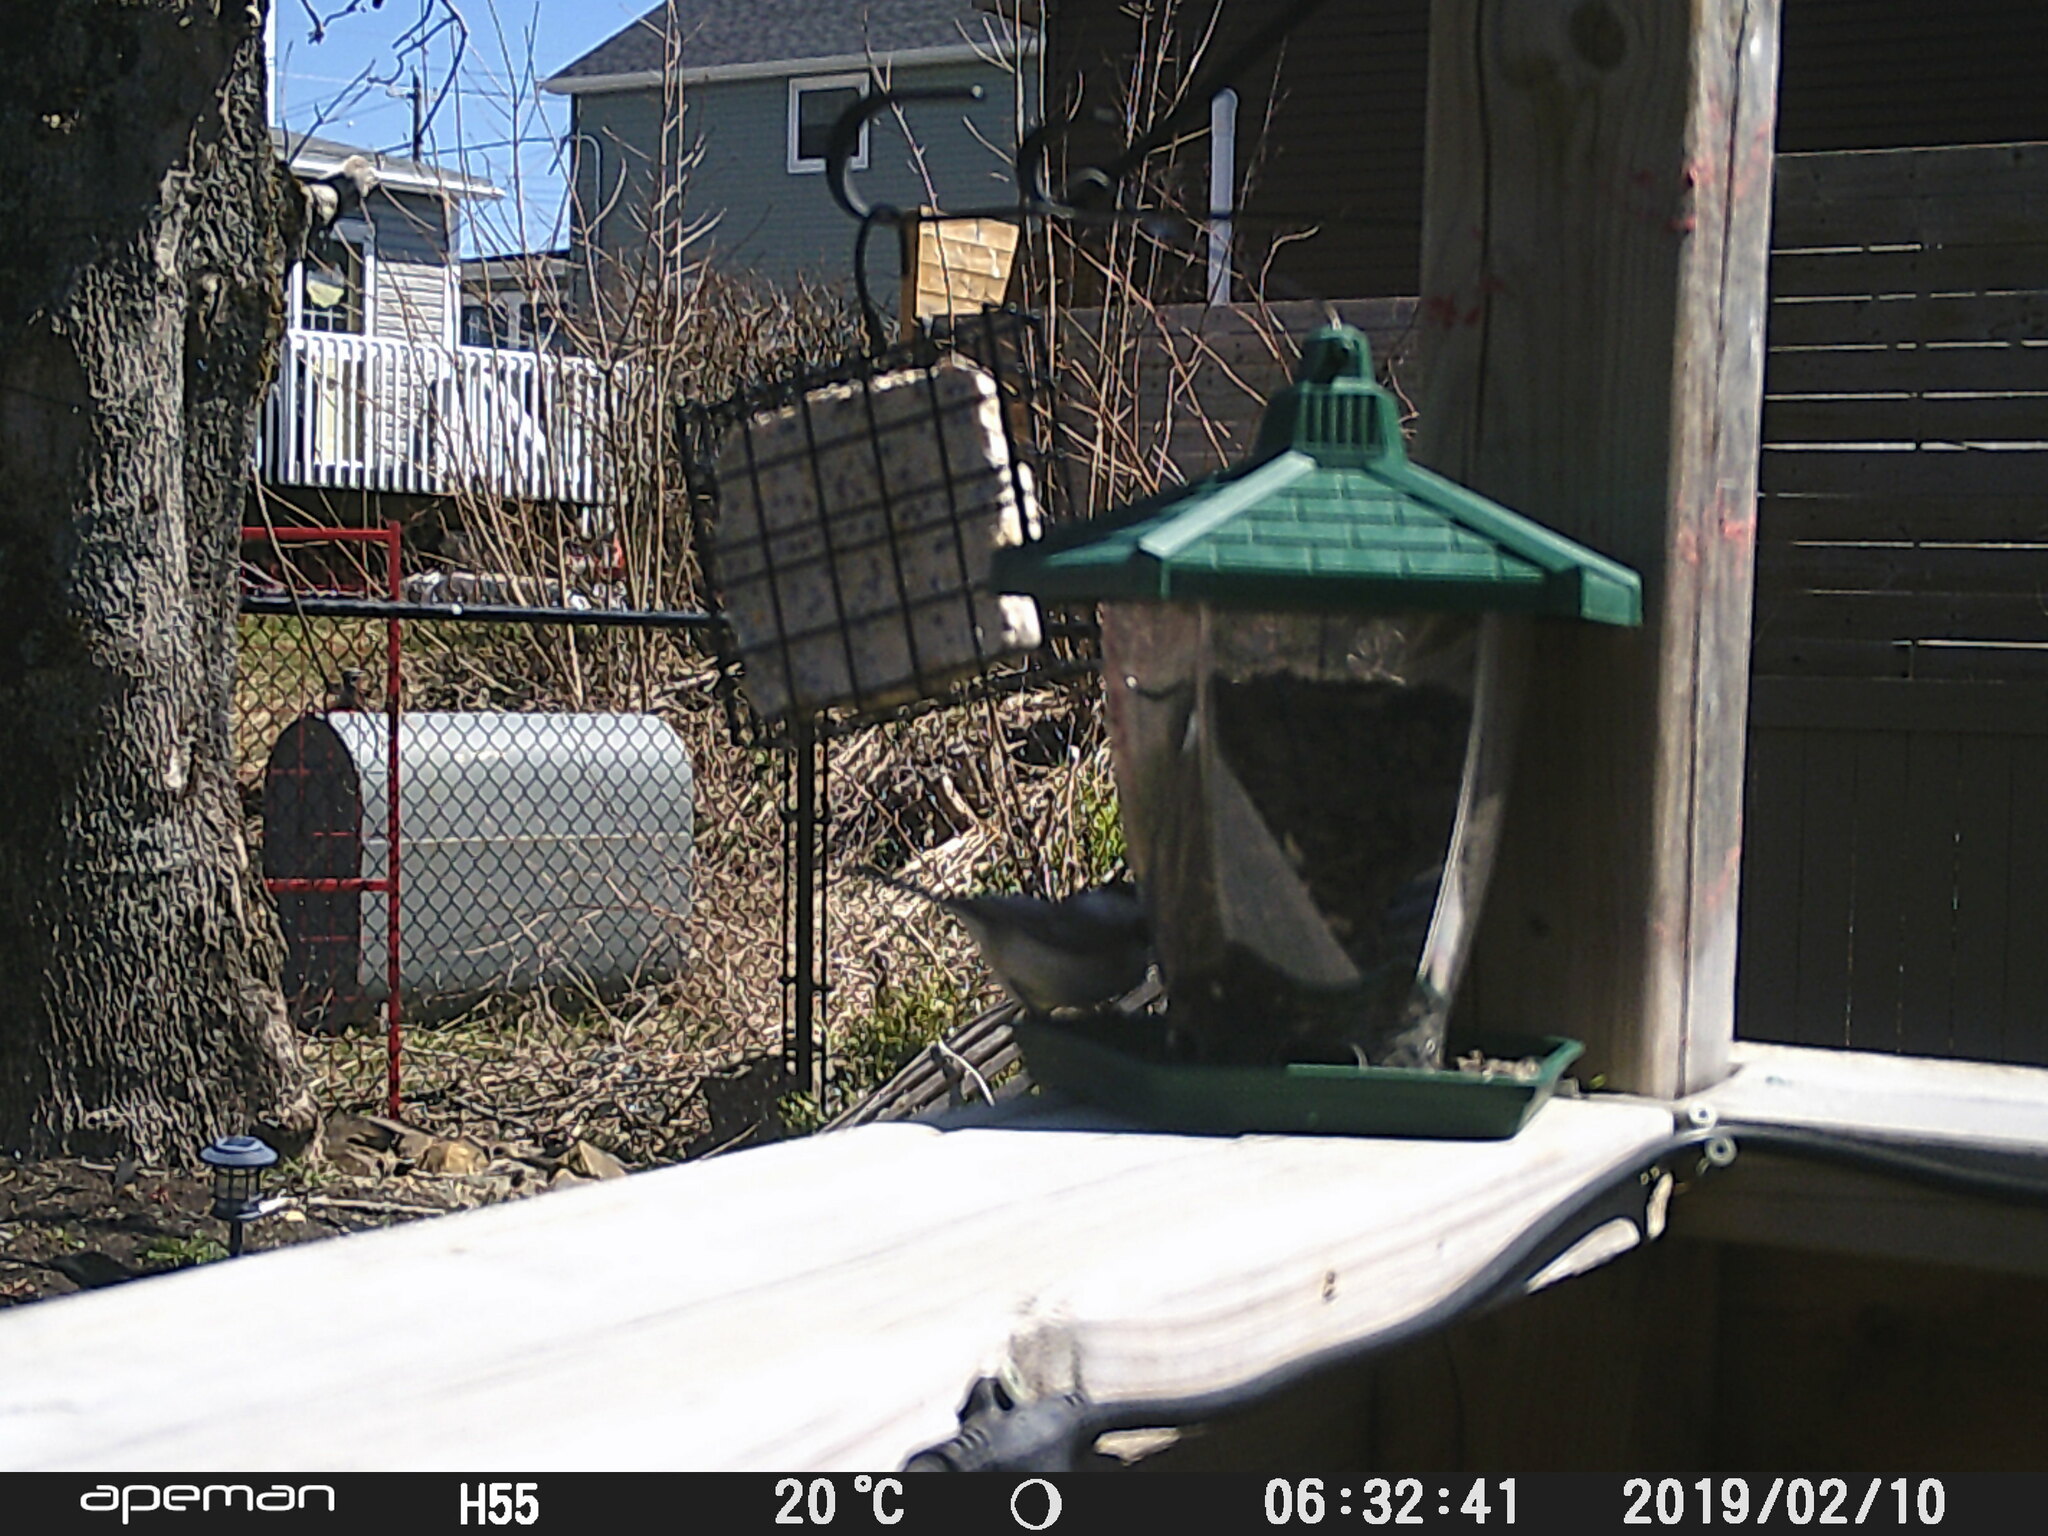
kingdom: Animalia
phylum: Chordata
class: Aves
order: Passeriformes
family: Paridae
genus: Poecile
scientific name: Poecile atricapillus
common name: Black-capped chickadee
